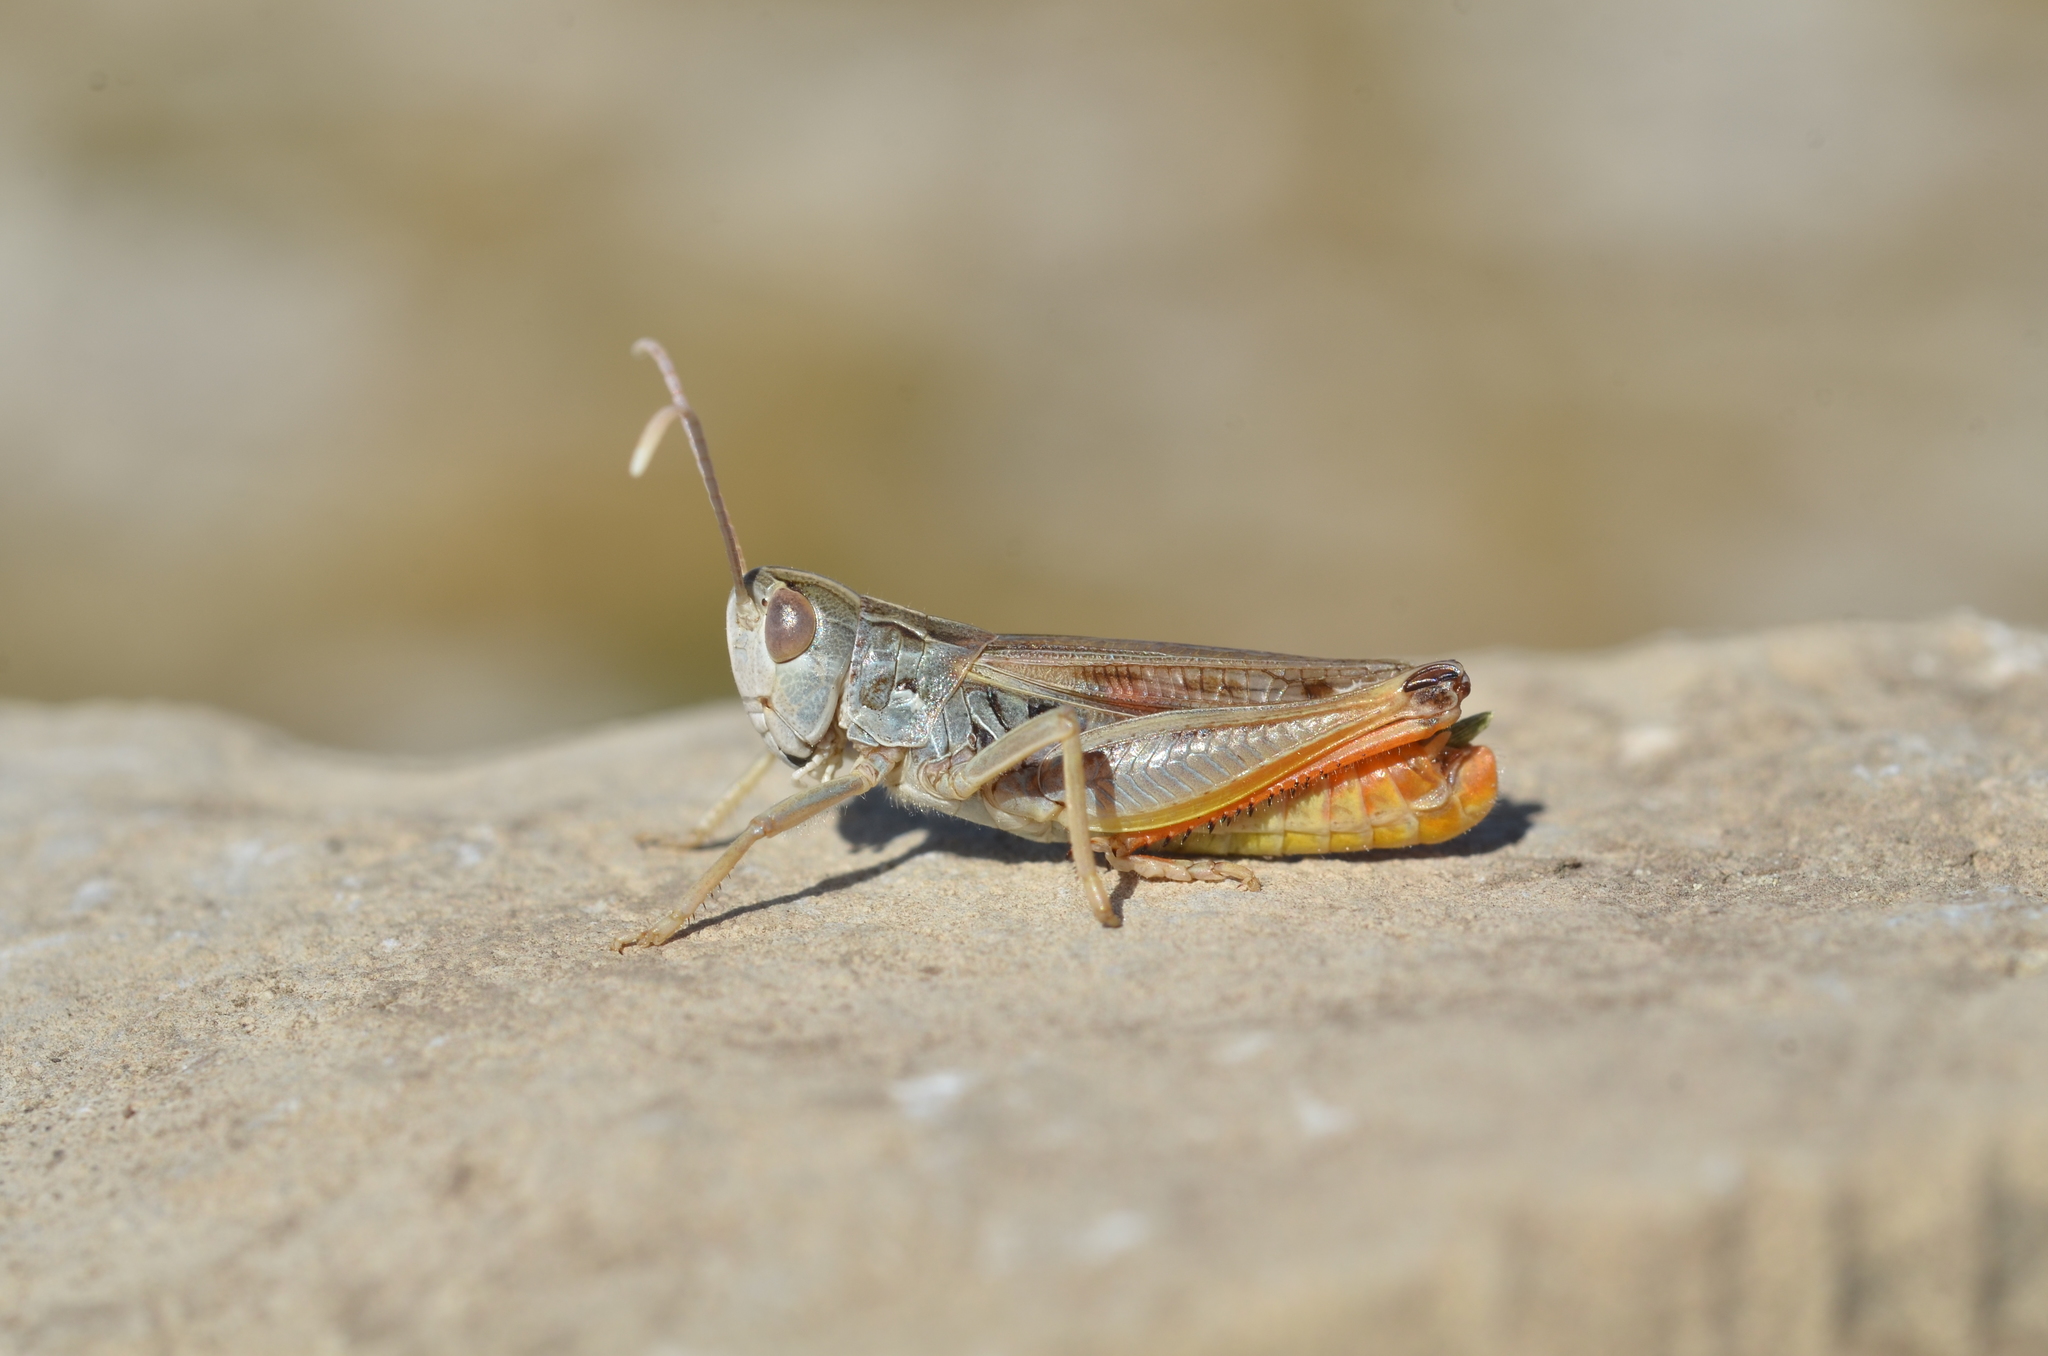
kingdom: Animalia
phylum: Arthropoda
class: Insecta
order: Orthoptera
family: Acrididae
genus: Stenobothrus
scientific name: Stenobothrus nigromaculatus
